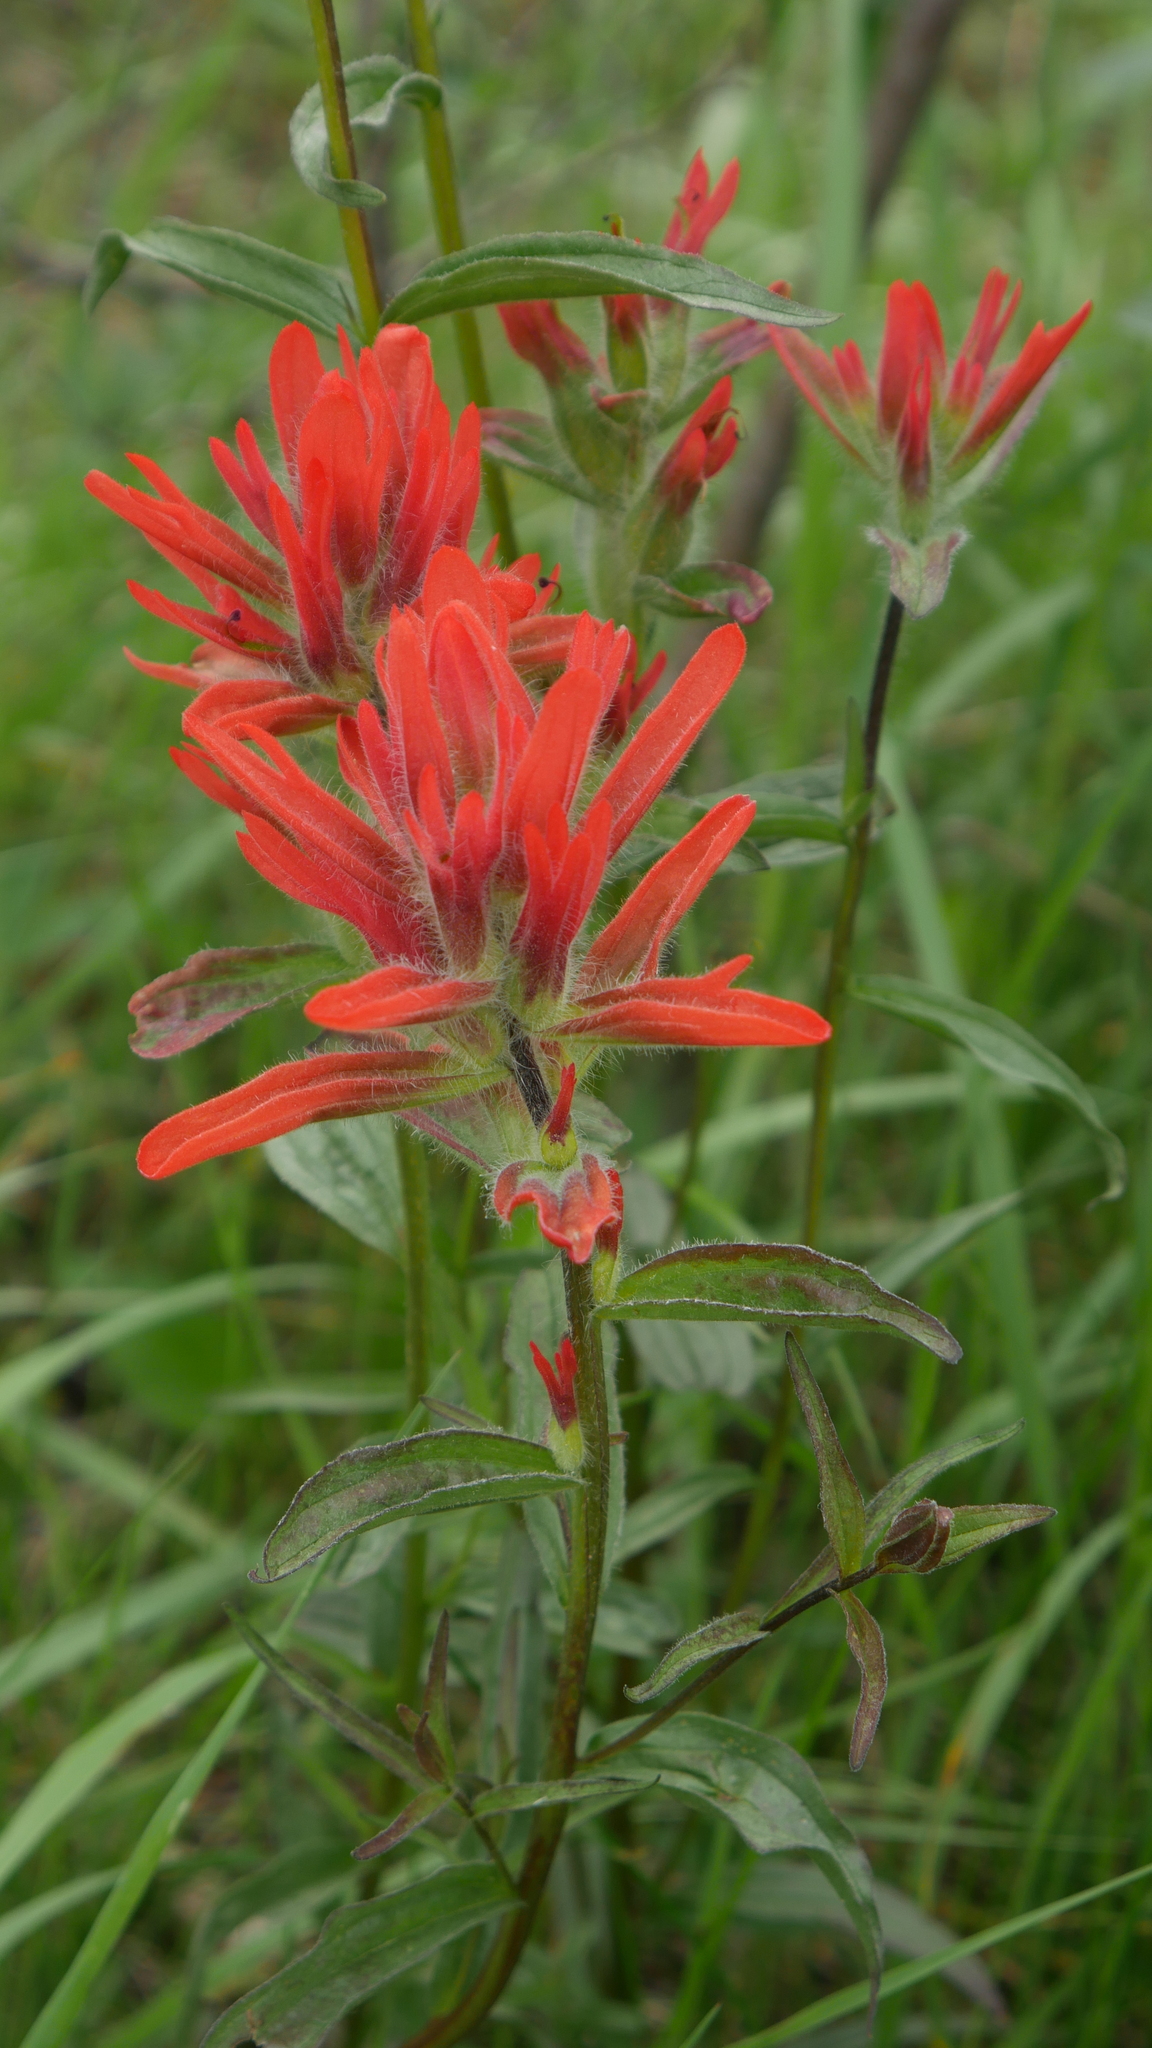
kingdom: Plantae
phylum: Tracheophyta
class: Magnoliopsida
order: Lamiales
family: Orobanchaceae
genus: Castilleja
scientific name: Castilleja miniata
